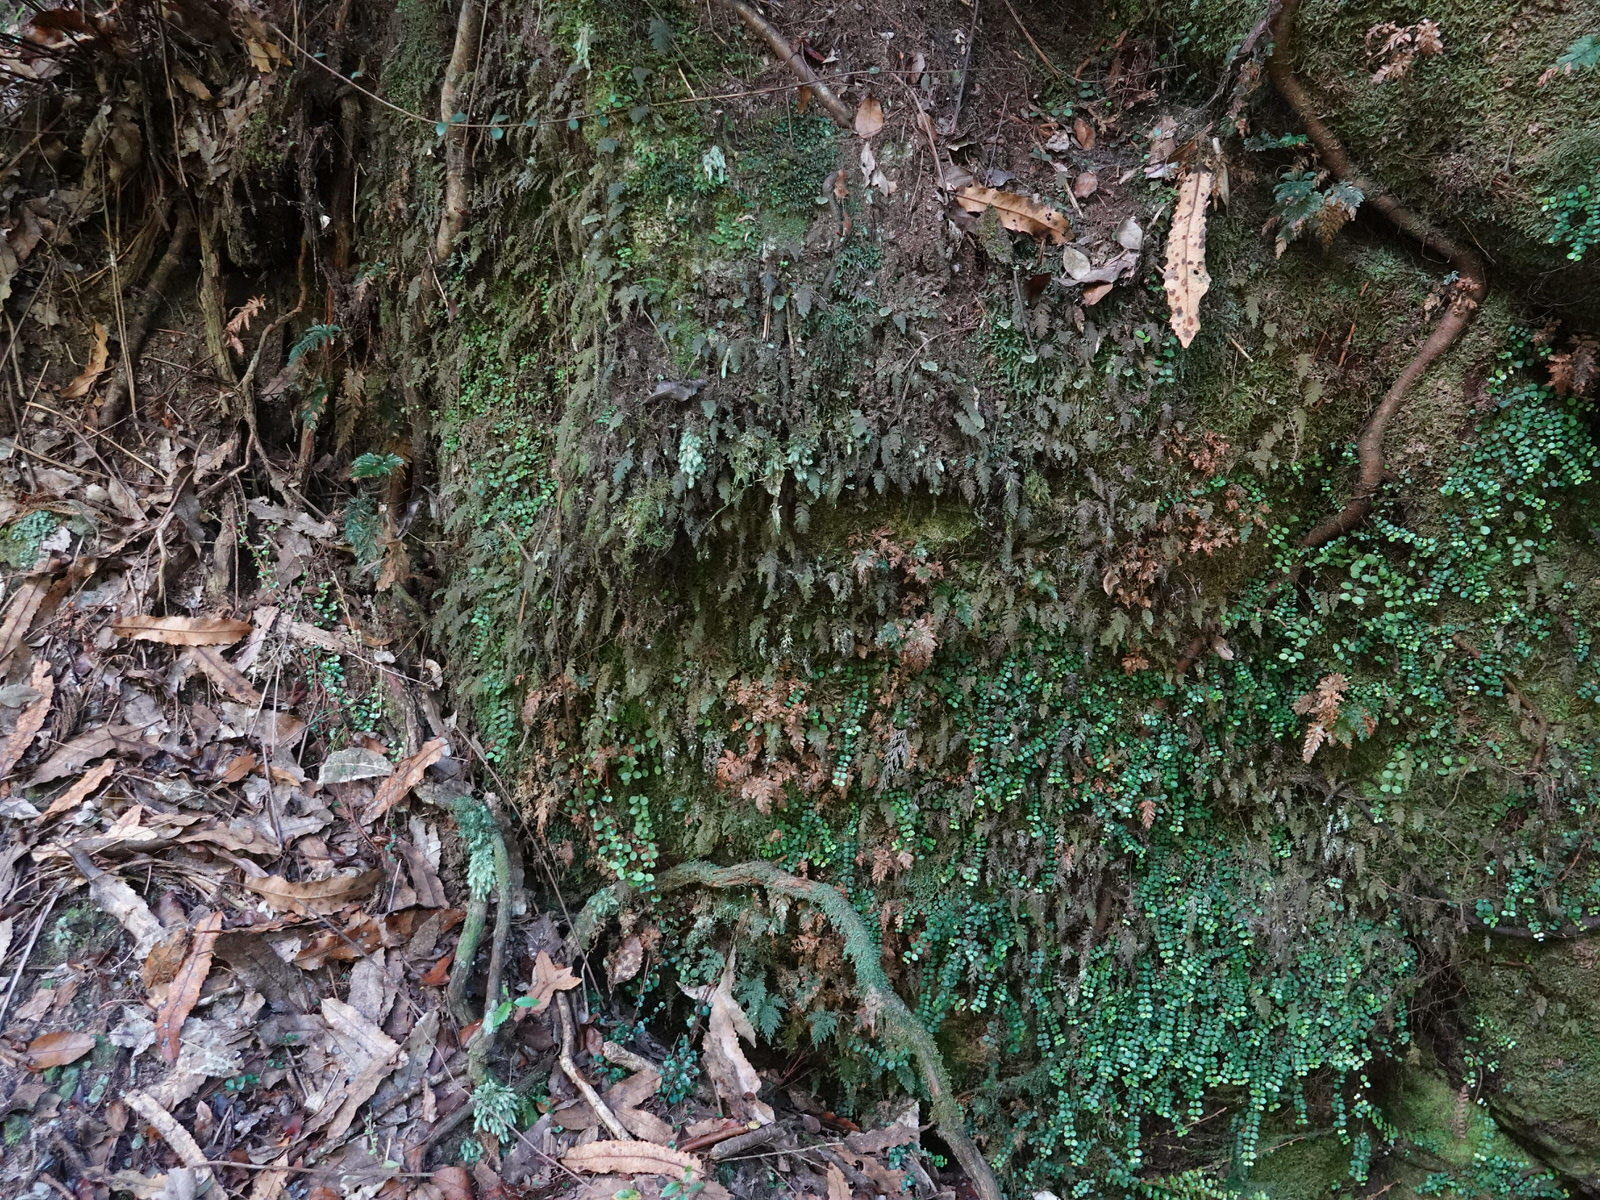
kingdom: Plantae
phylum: Tracheophyta
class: Polypodiopsida
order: Hymenophyllales
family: Hymenophyllaceae
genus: Abrodictyum
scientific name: Abrodictyum elongatum
